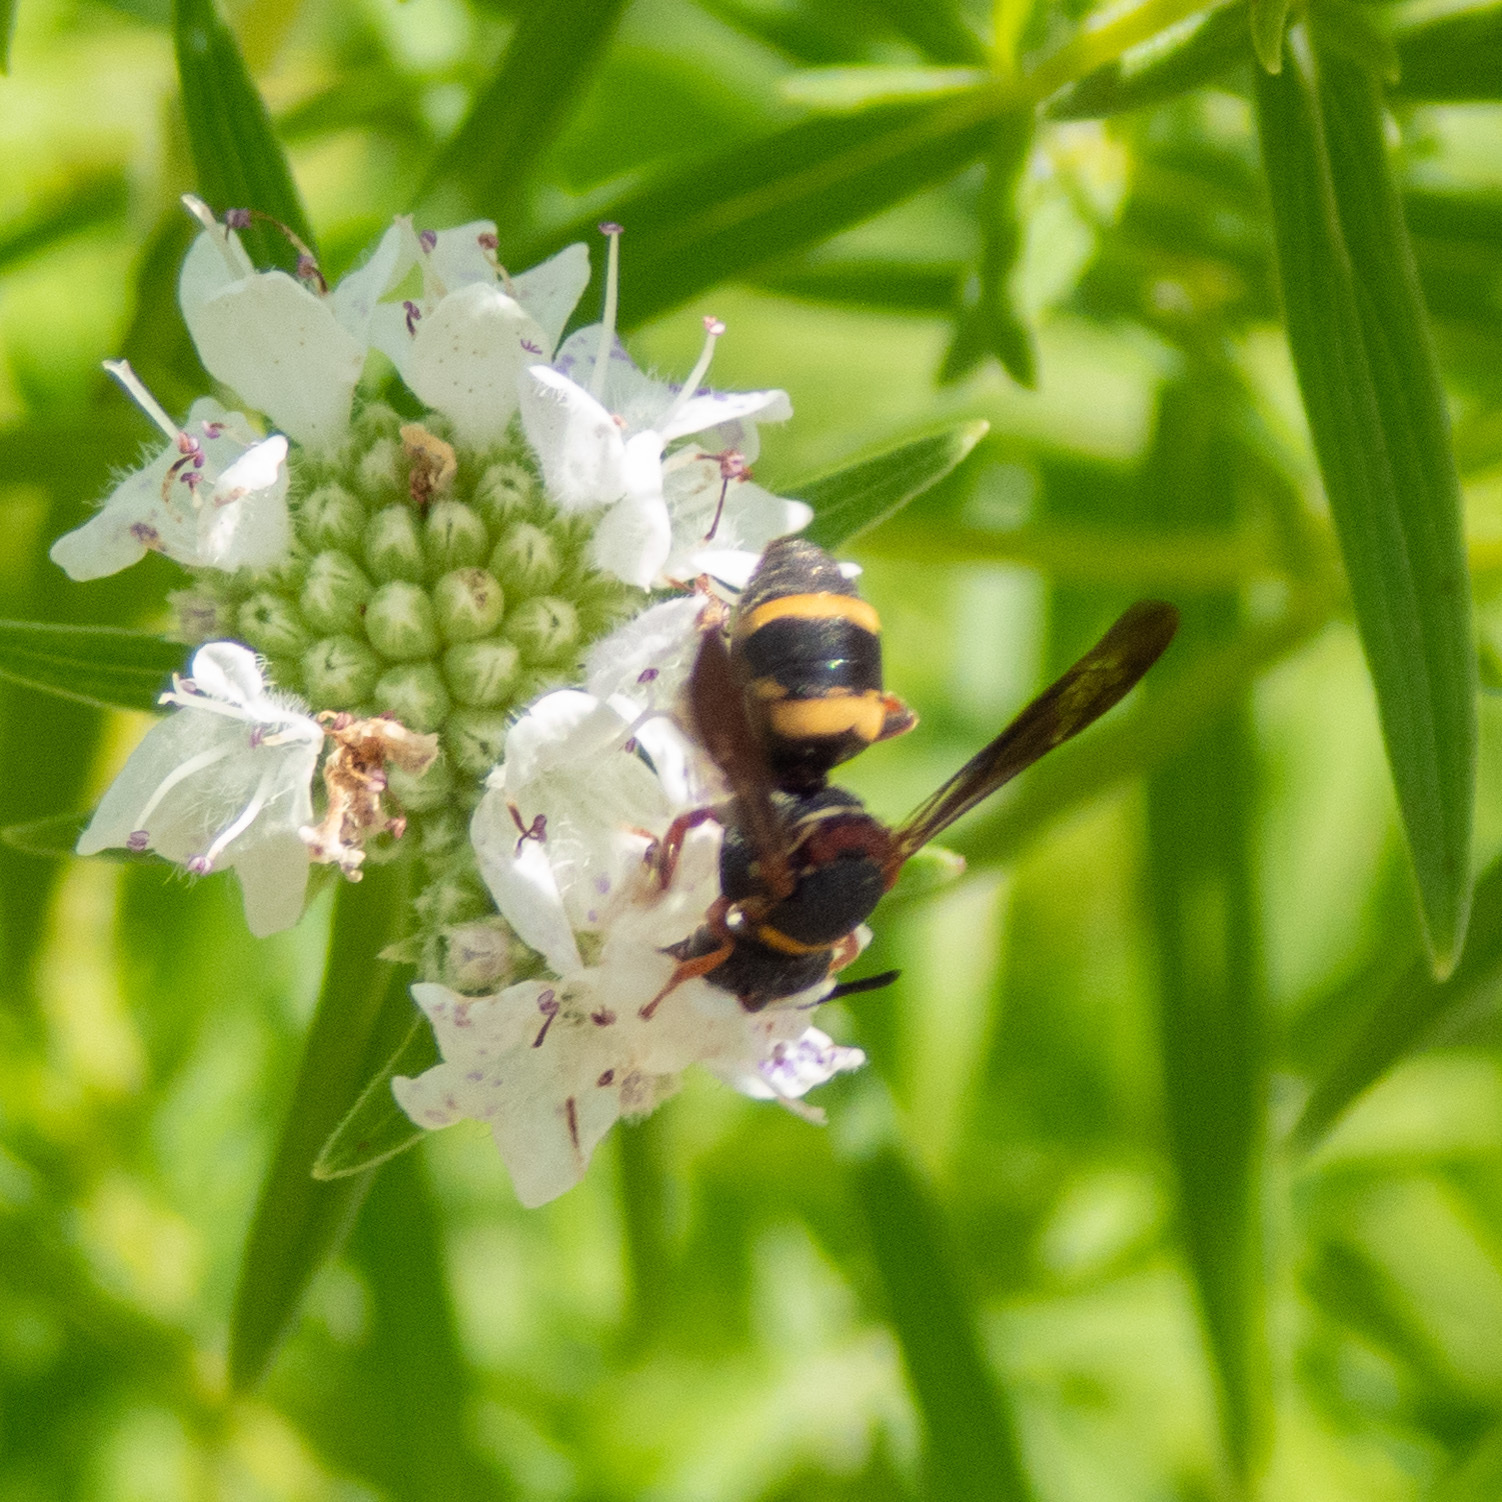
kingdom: Animalia
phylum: Arthropoda
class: Insecta
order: Hymenoptera
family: Apidae
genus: Epeolus
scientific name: Epeolus bifasciatus
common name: Two-banded cellophane-cuckoo
